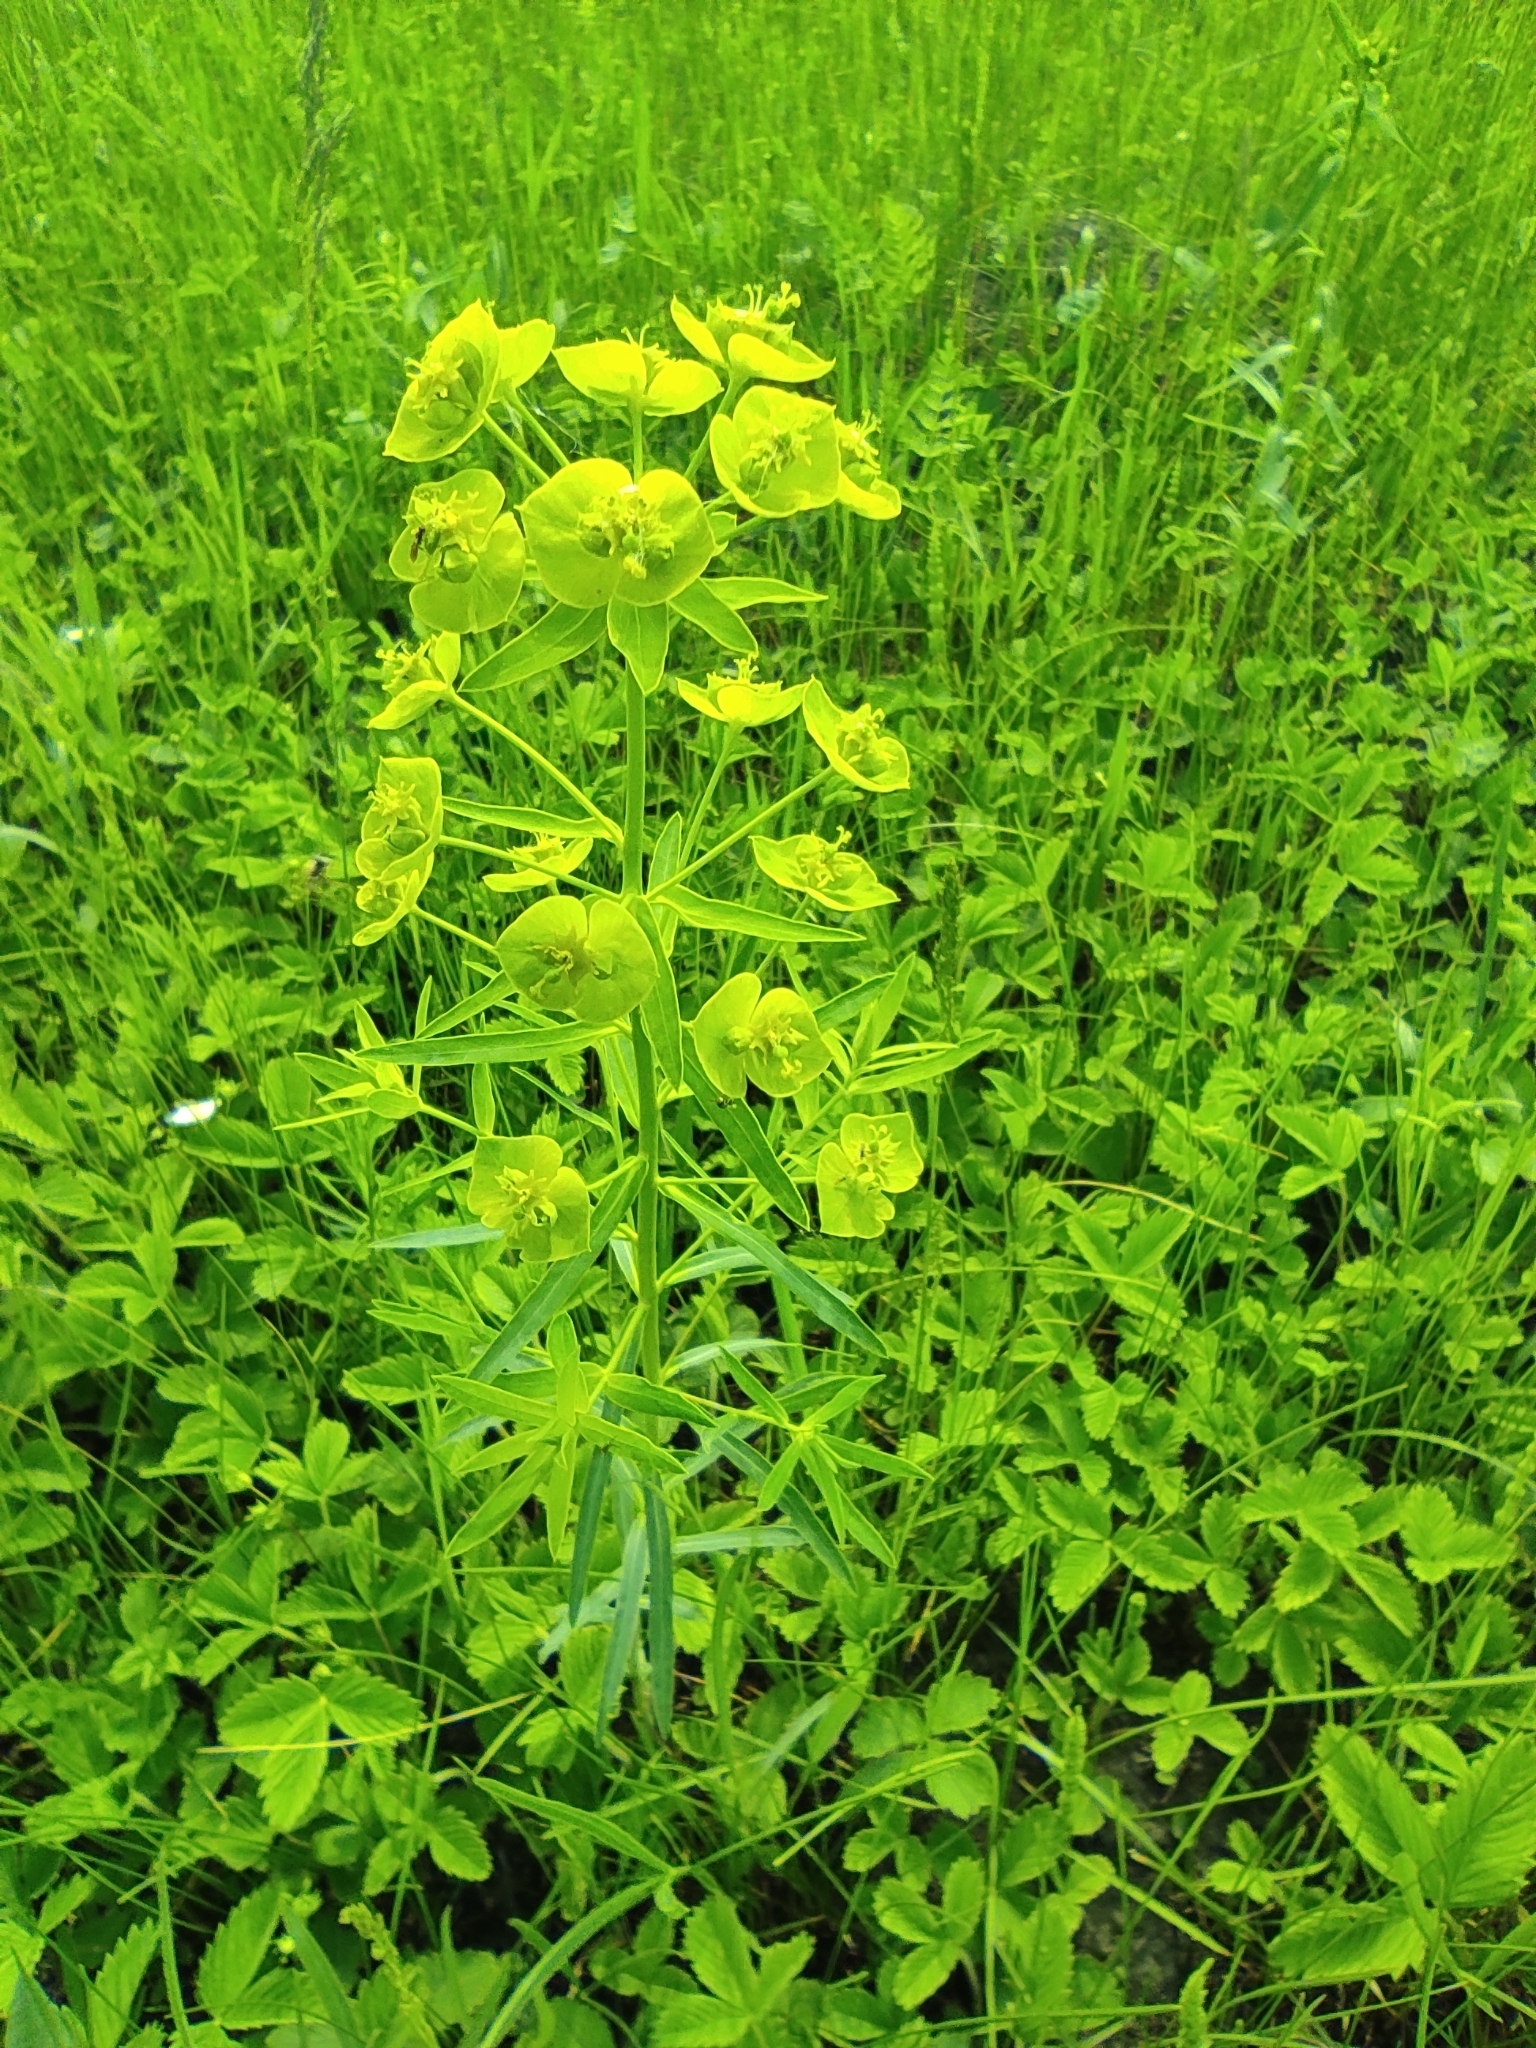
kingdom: Plantae
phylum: Tracheophyta
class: Magnoliopsida
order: Malpighiales
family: Euphorbiaceae
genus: Euphorbia
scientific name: Euphorbia virgata
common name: Leafy spurge
